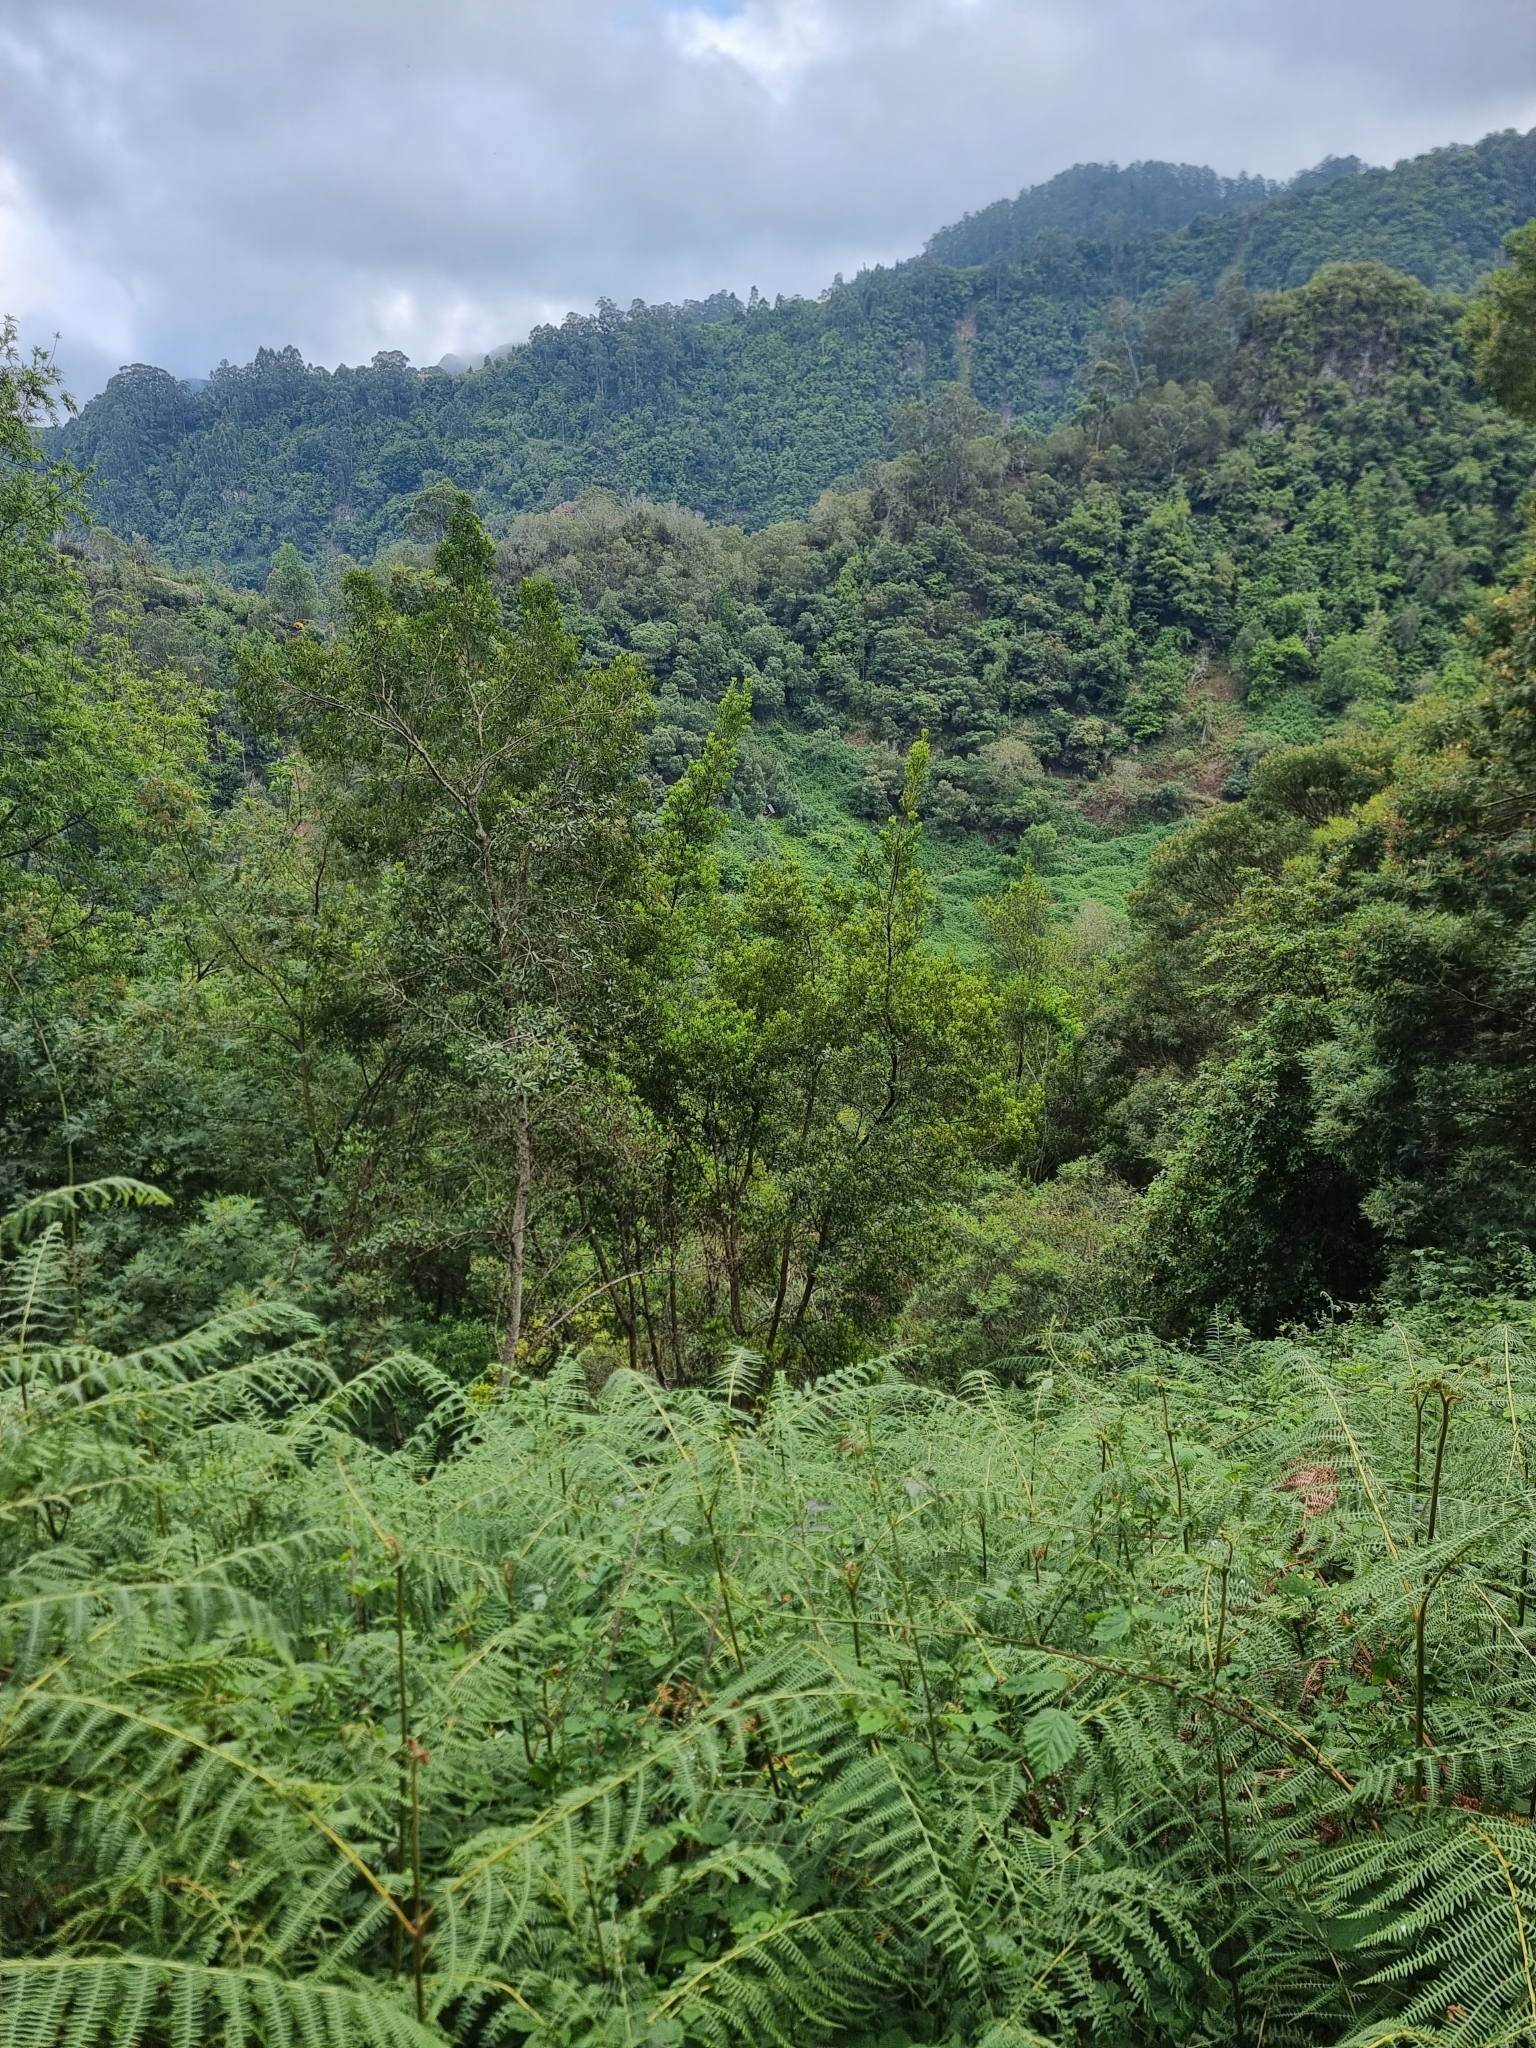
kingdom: Plantae
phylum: Tracheophyta
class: Magnoliopsida
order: Fagales
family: Myricaceae
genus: Morella
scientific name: Morella faya
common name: Firetree
